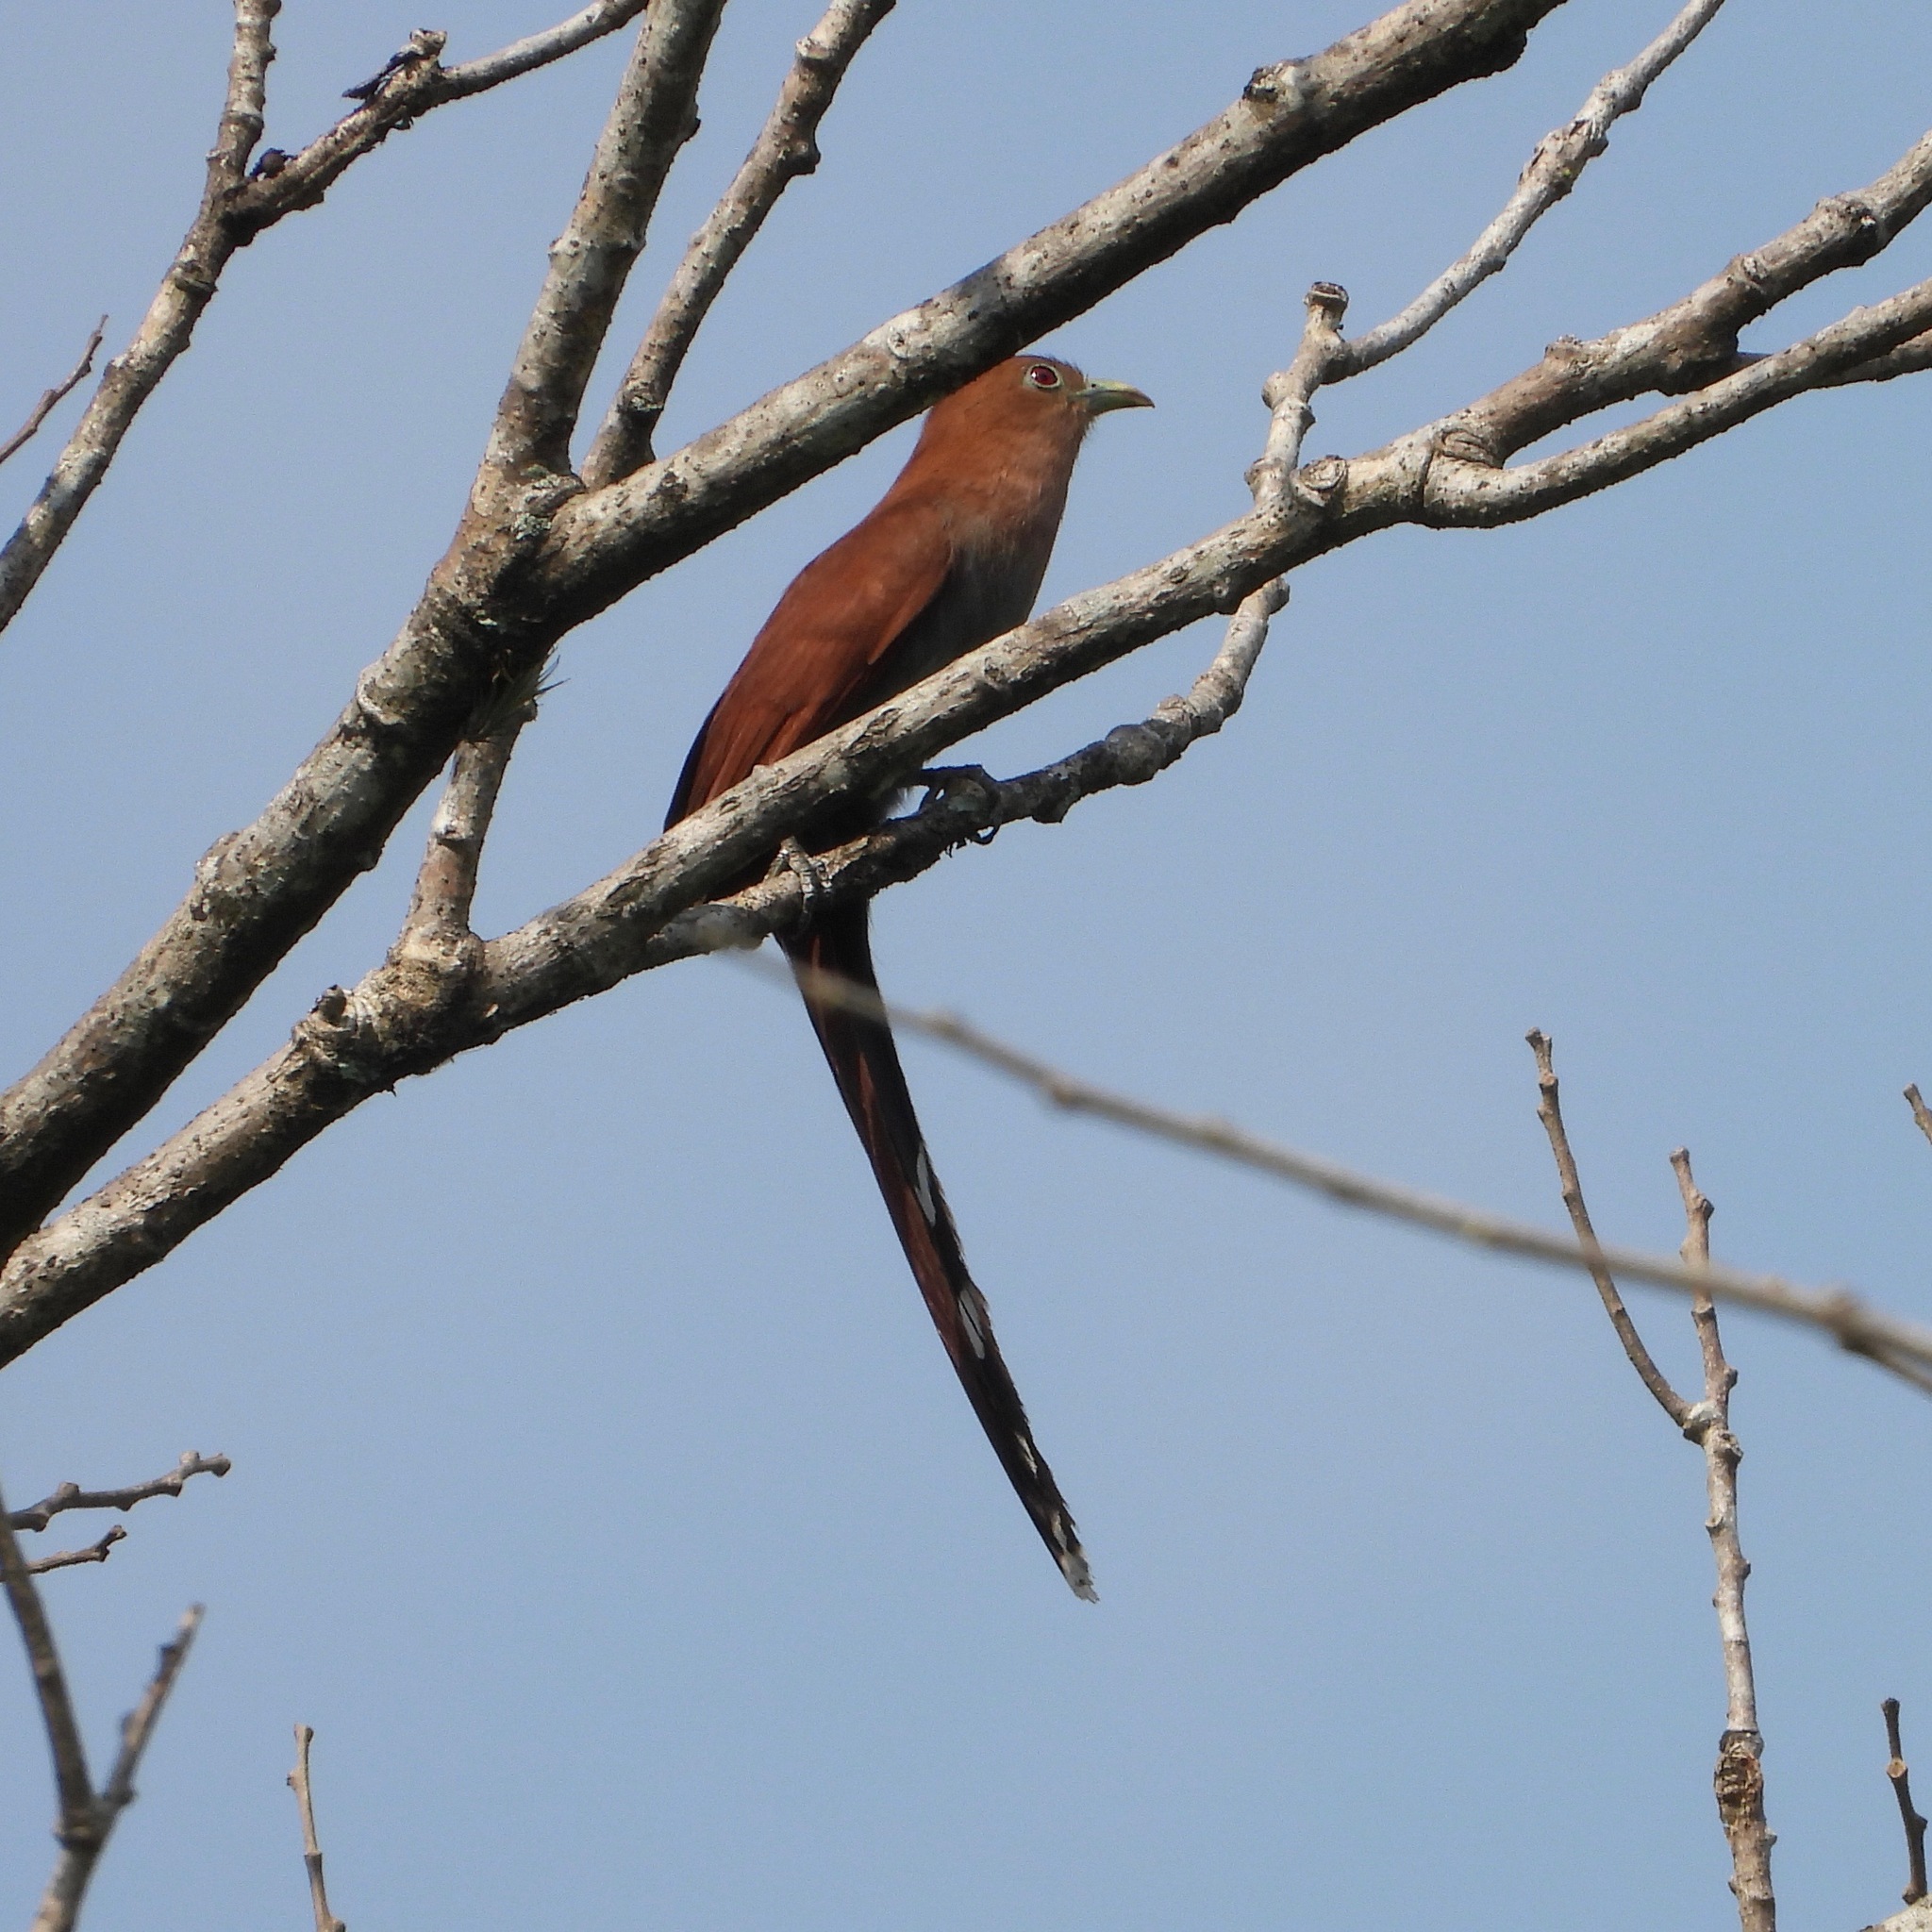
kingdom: Animalia
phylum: Chordata
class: Aves
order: Cuculiformes
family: Cuculidae
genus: Piaya
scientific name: Piaya cayana
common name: Squirrel cuckoo
